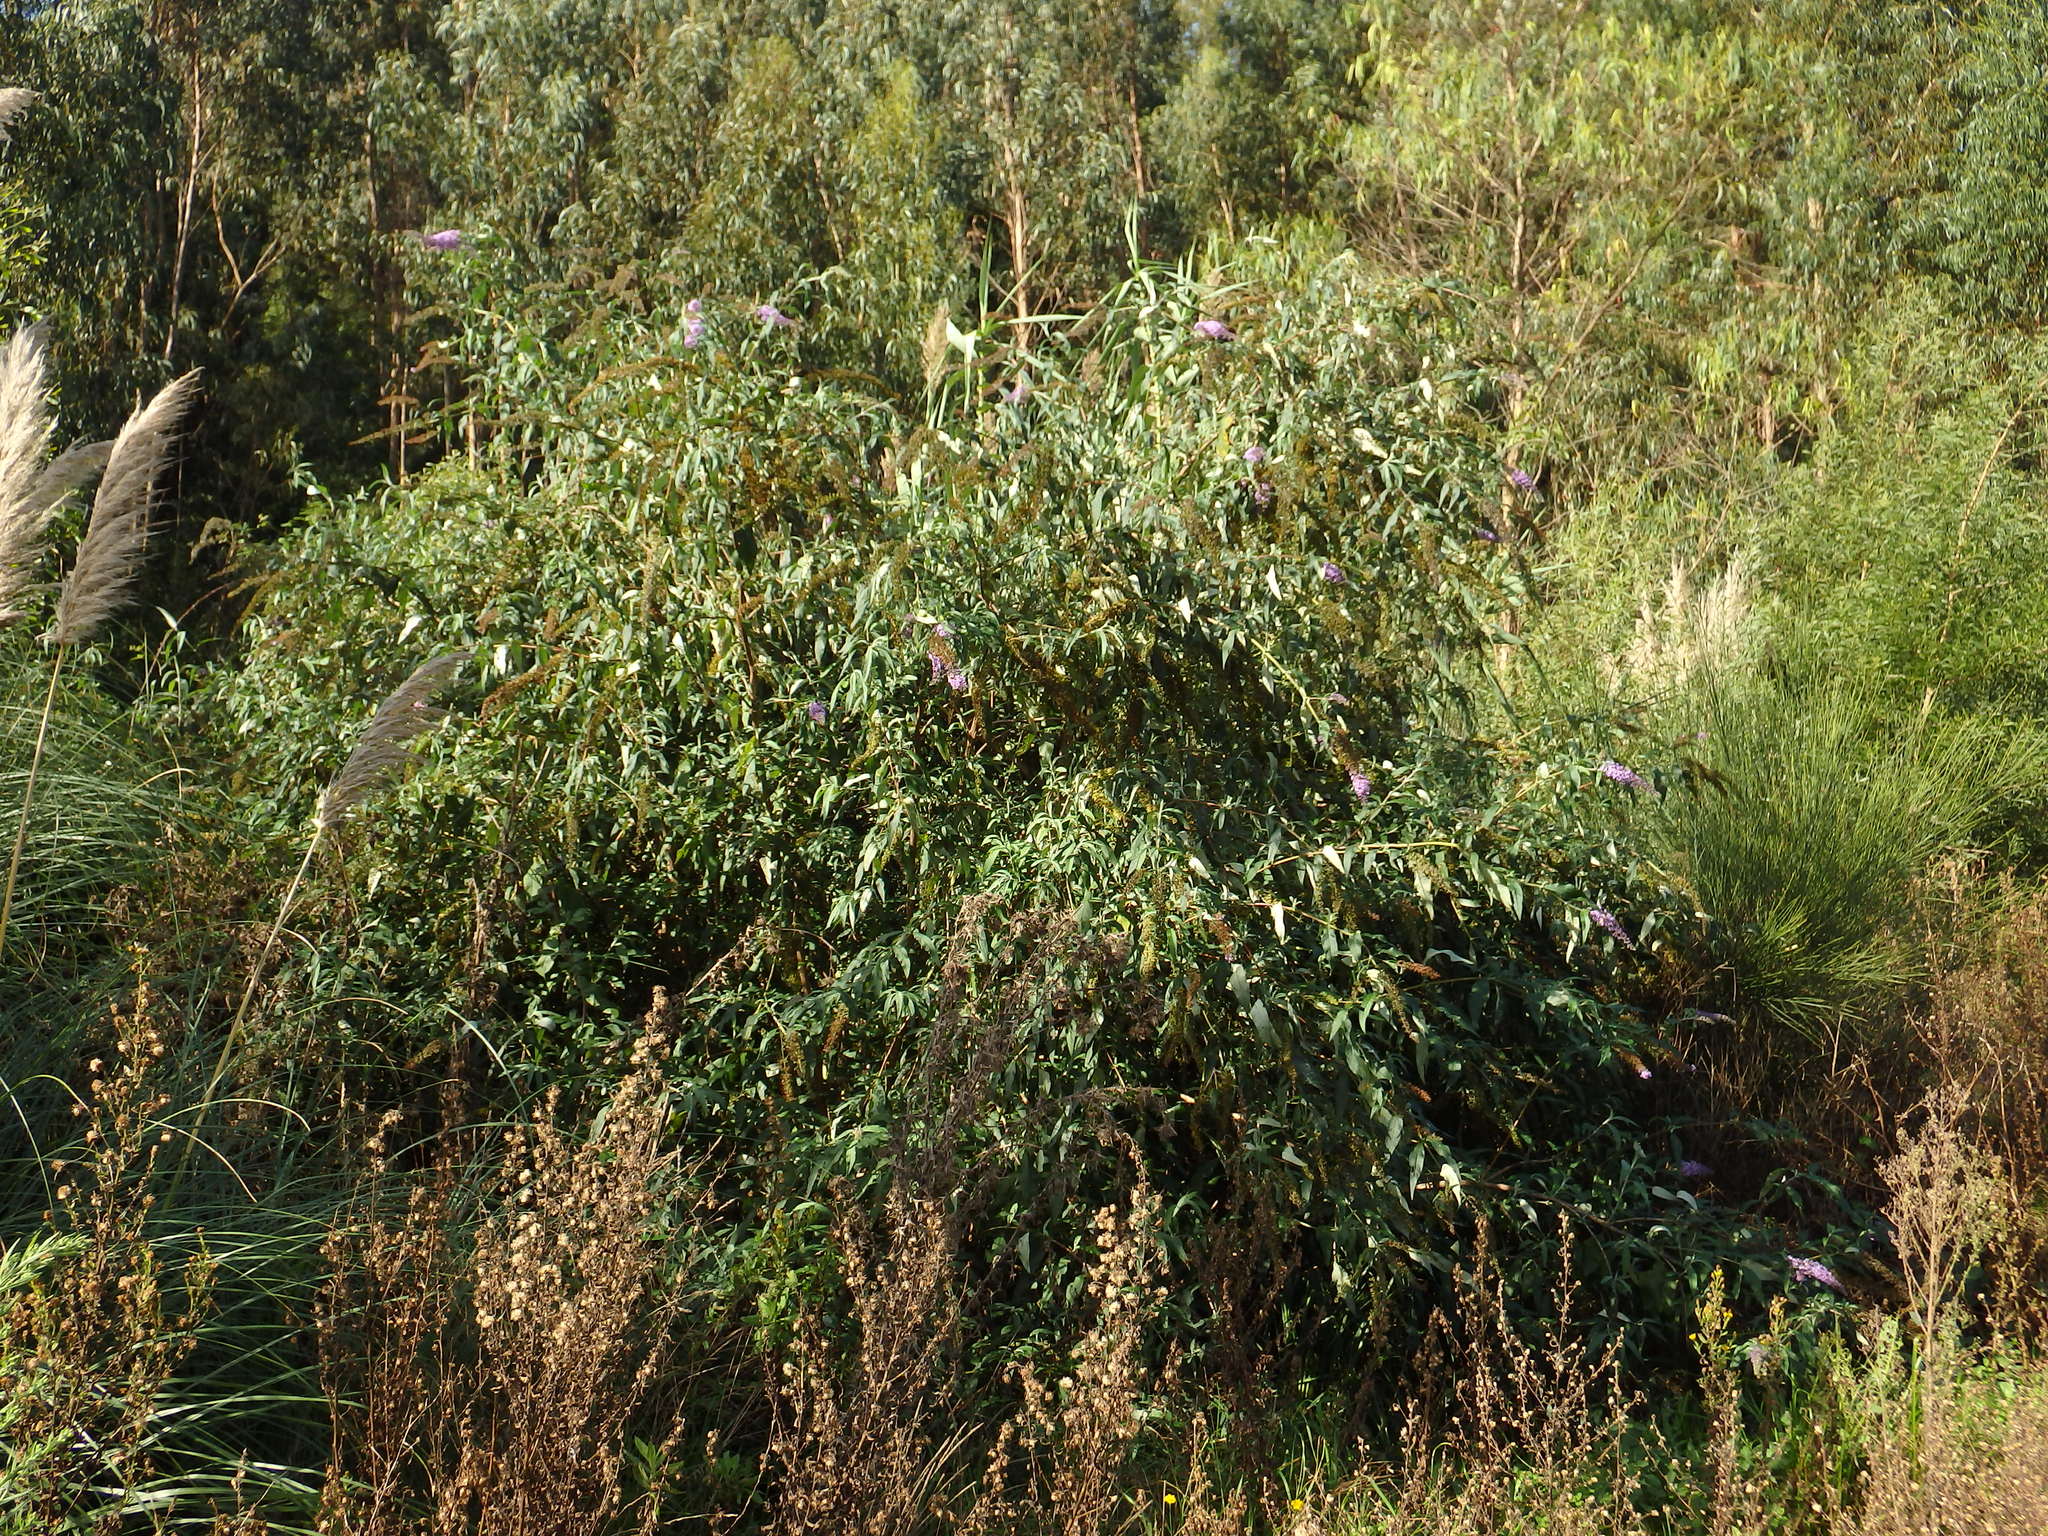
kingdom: Plantae
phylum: Tracheophyta
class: Magnoliopsida
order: Lamiales
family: Scrophulariaceae
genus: Buddleja
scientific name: Buddleja davidii
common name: Butterfly-bush
